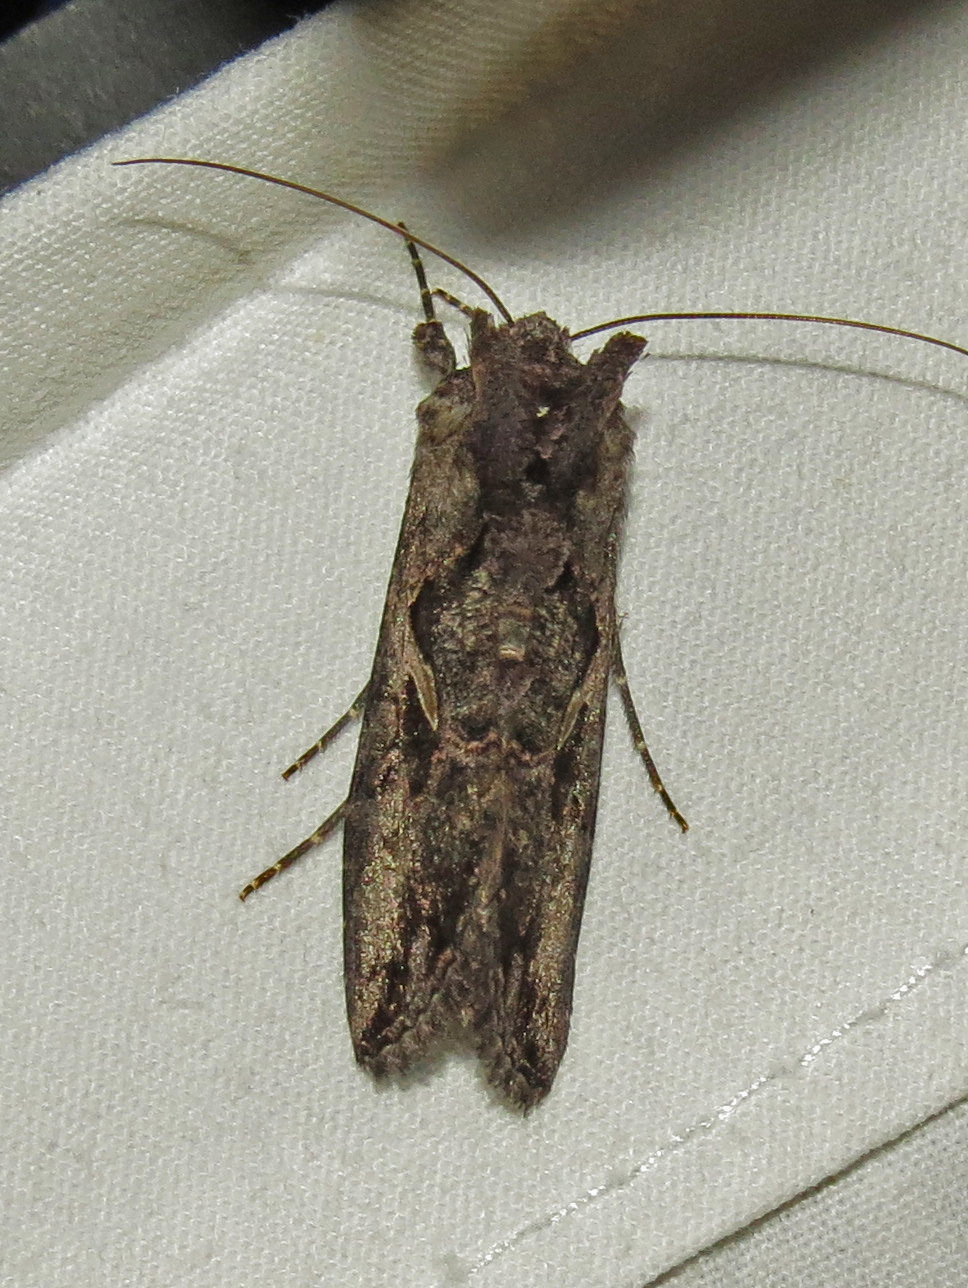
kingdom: Animalia
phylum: Arthropoda
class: Insecta
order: Lepidoptera
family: Noctuidae
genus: Ctenoplusia
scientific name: Ctenoplusia oxygramma
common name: Sharp-stigma looper moth
